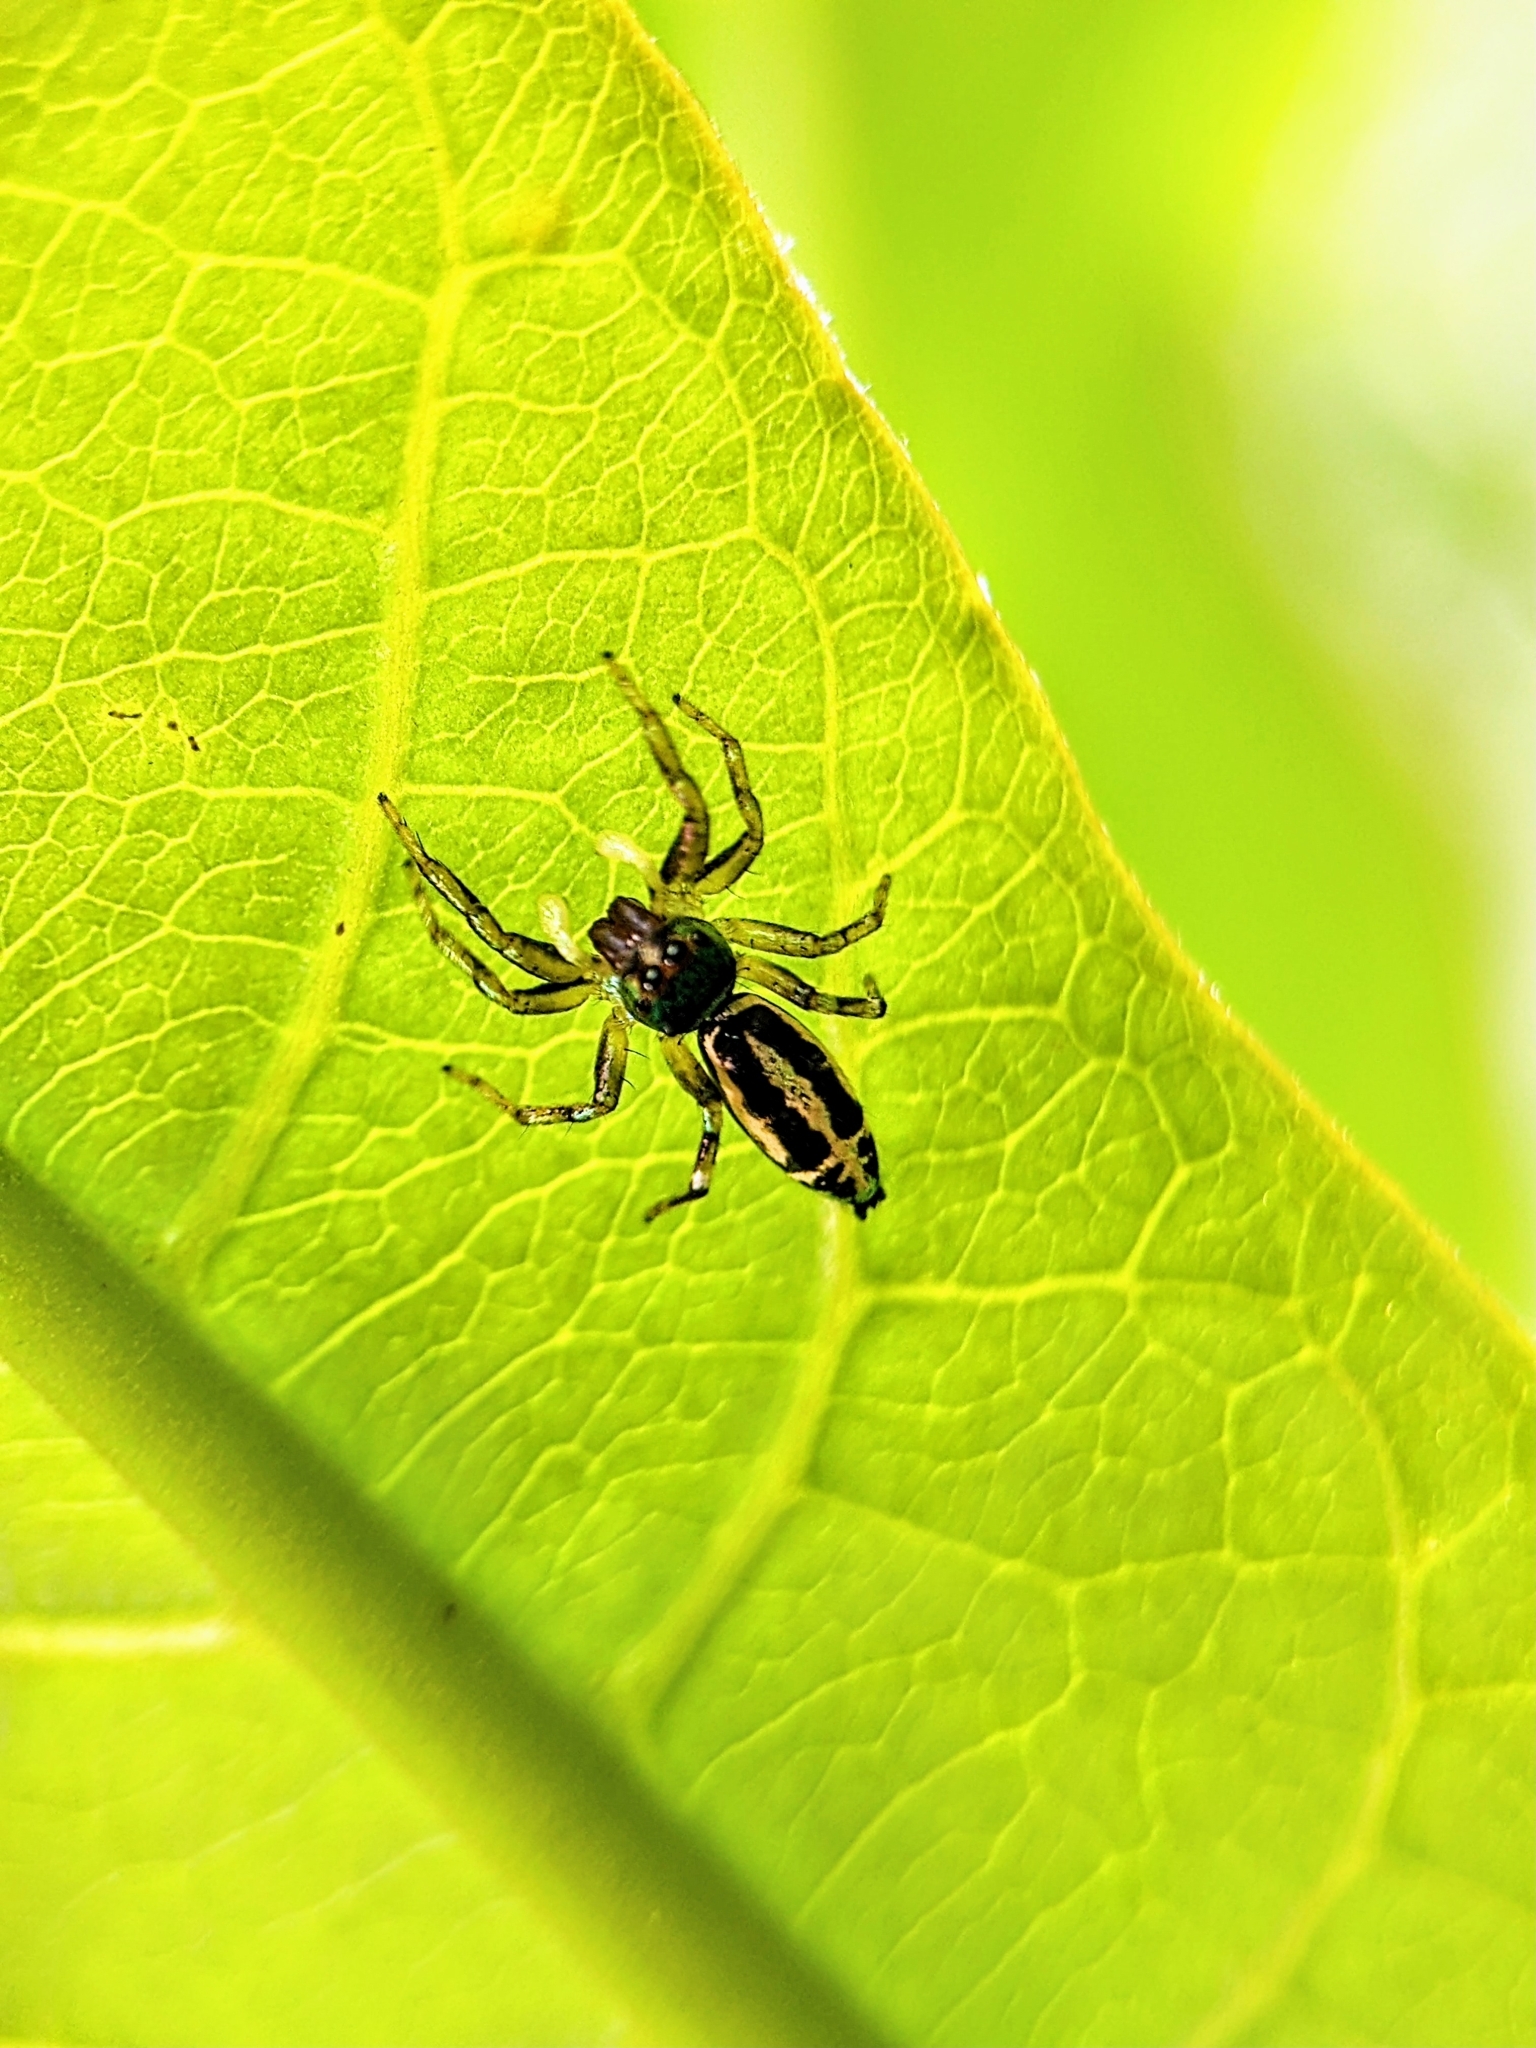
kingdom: Animalia
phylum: Arthropoda
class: Arachnida
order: Araneae
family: Salticidae
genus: Cosmophasis
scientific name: Cosmophasis thalassina
